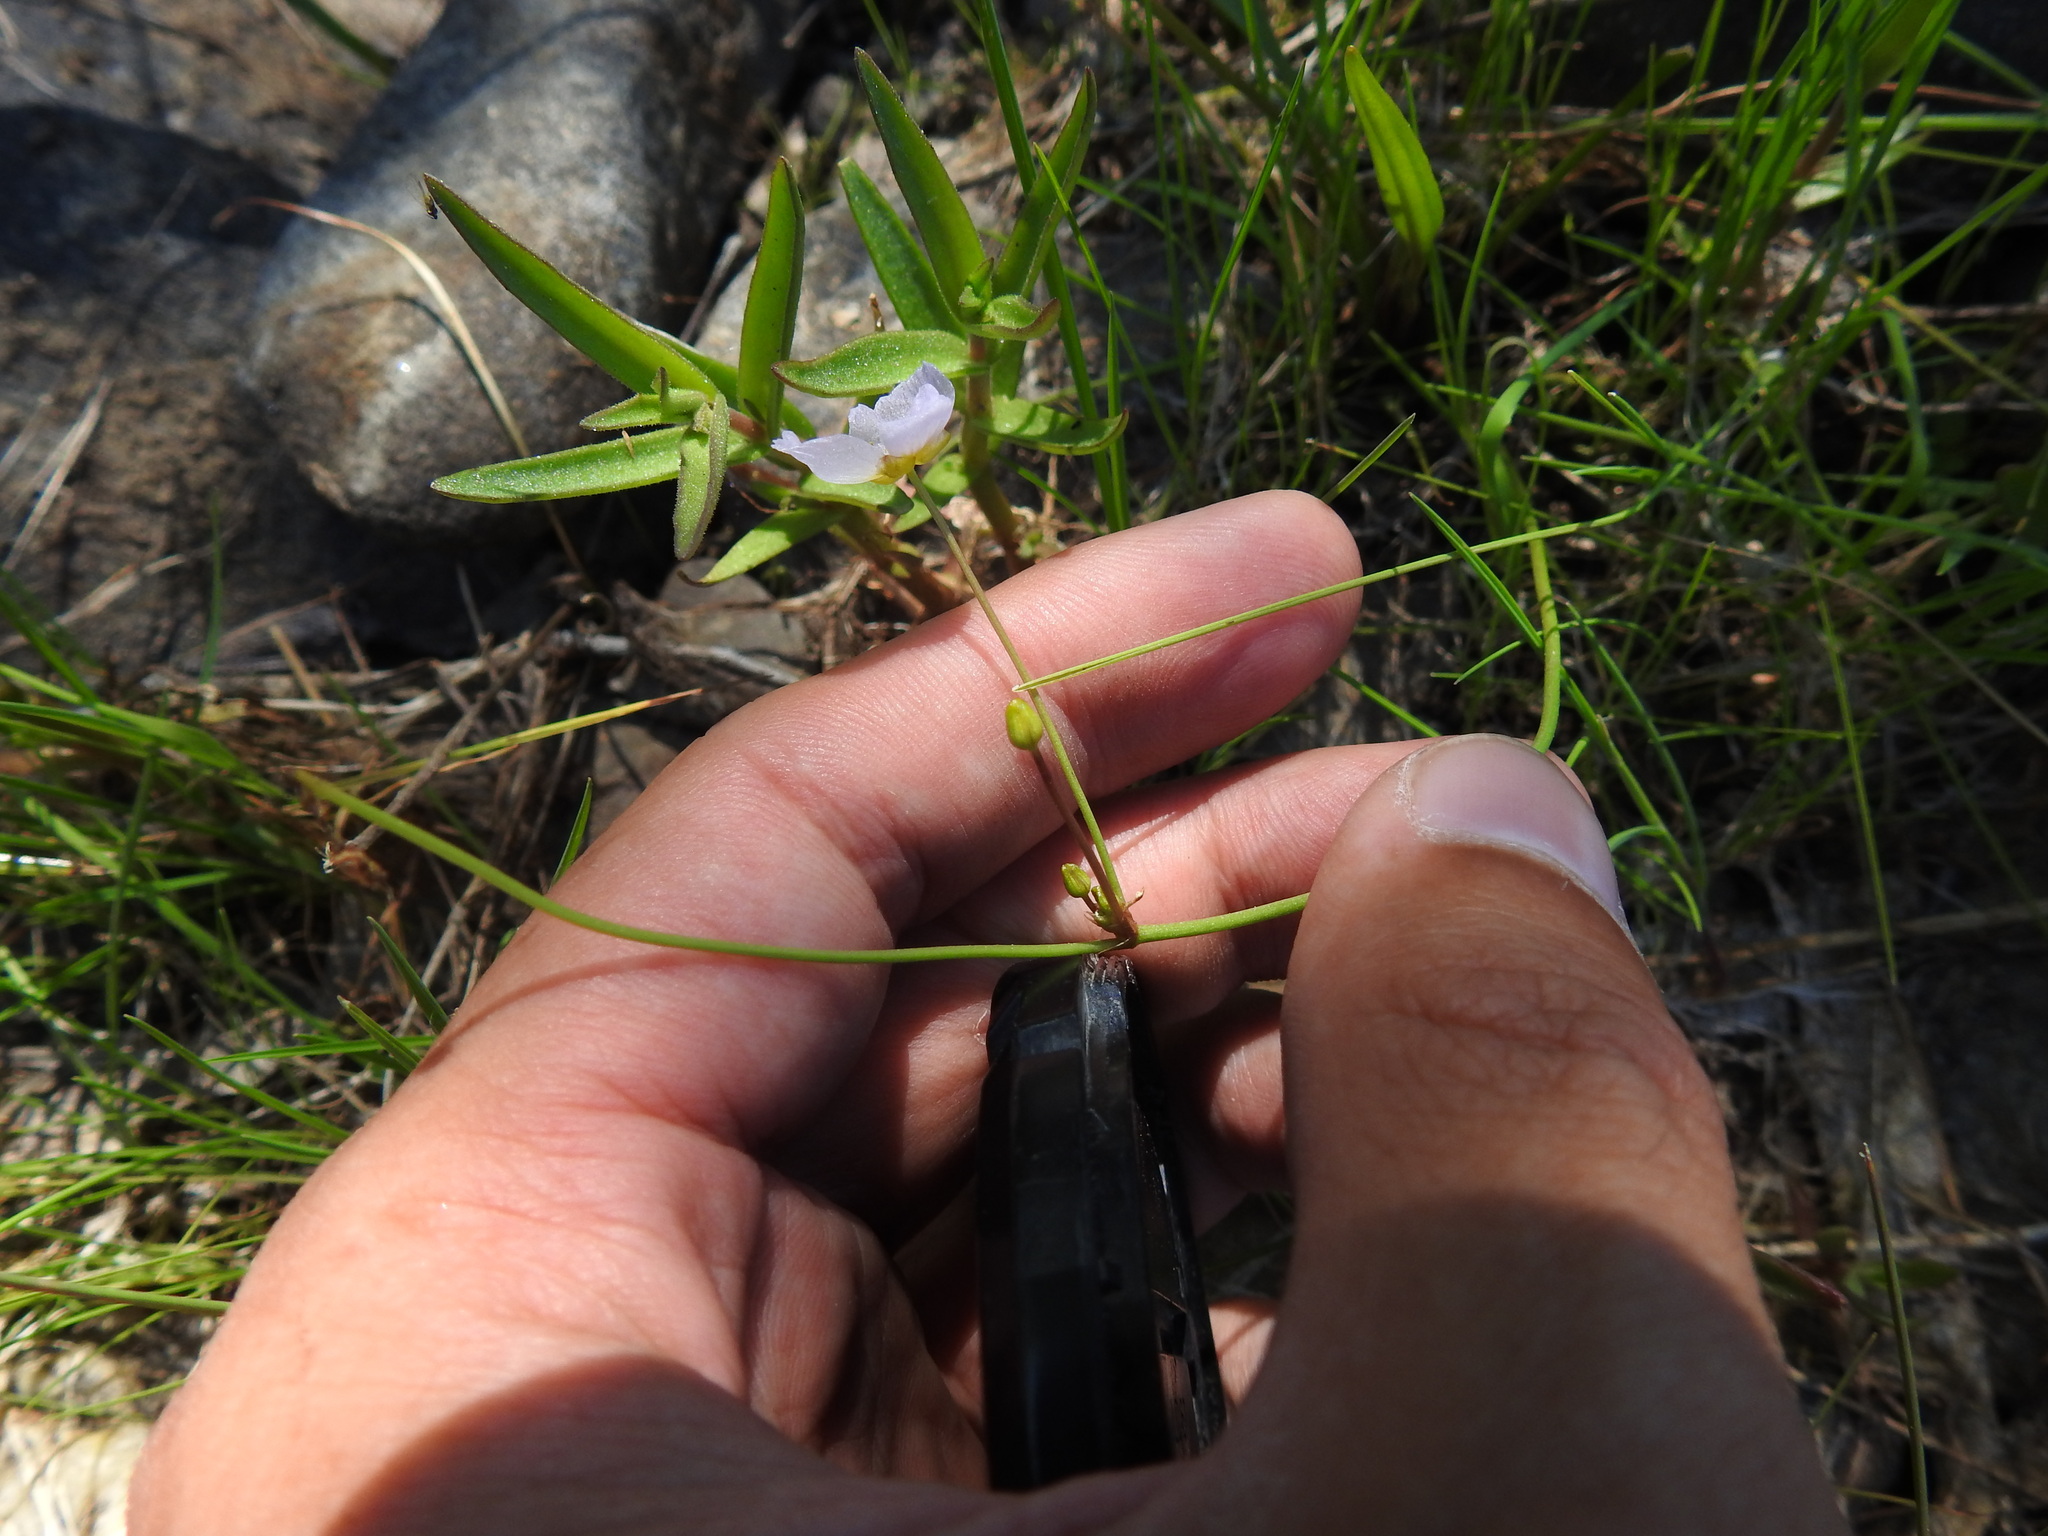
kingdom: Plantae
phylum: Tracheophyta
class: Liliopsida
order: Alismatales
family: Alismataceae
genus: Baldellia
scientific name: Baldellia repens
